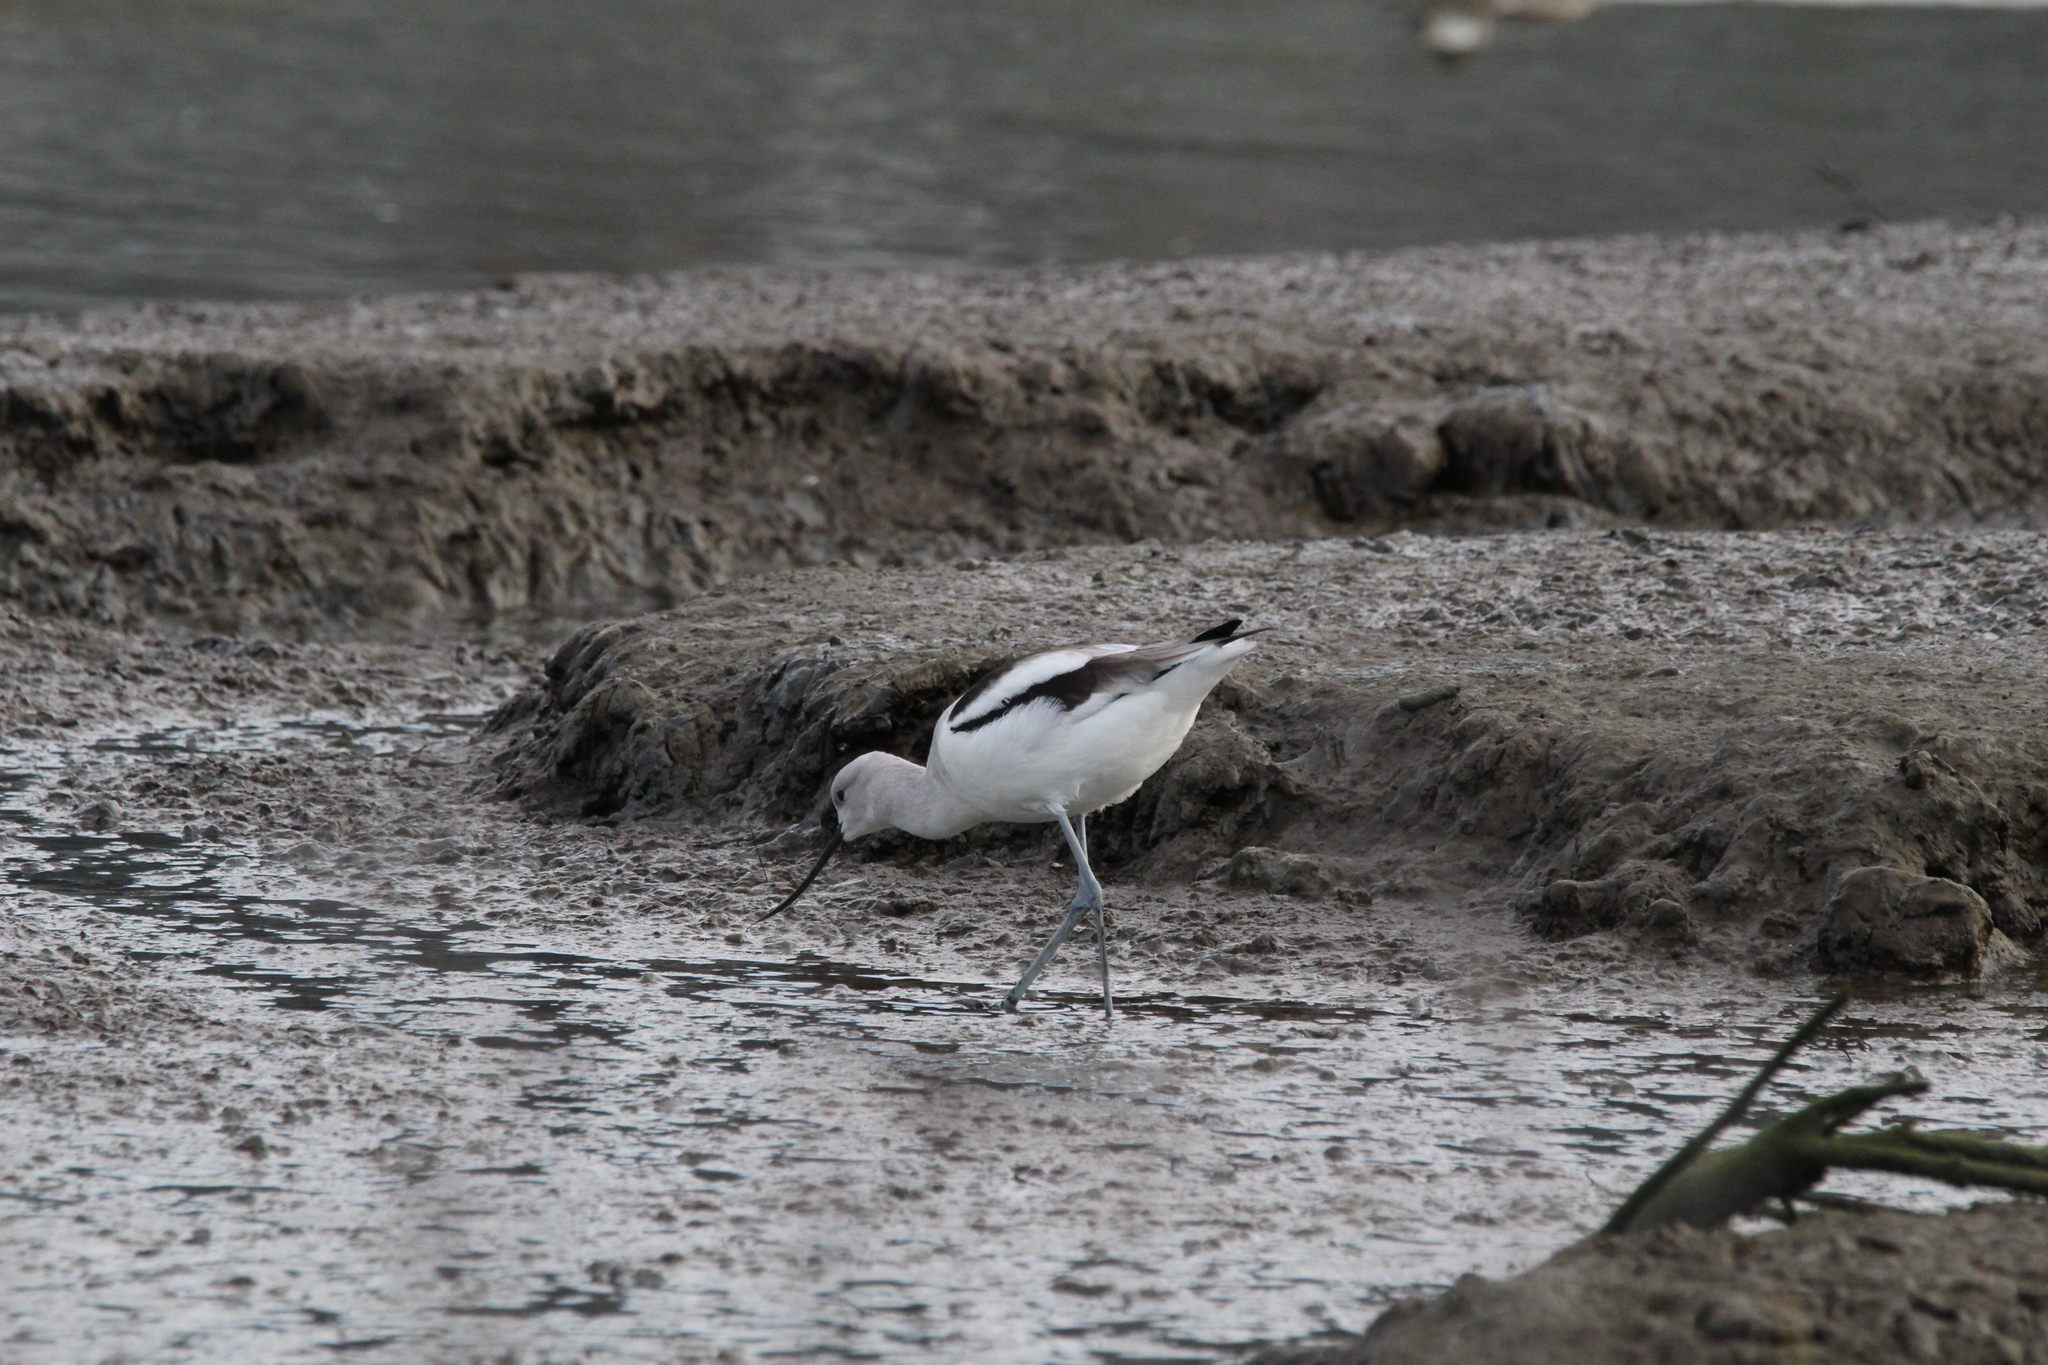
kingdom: Animalia
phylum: Chordata
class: Aves
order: Charadriiformes
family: Recurvirostridae
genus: Recurvirostra
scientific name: Recurvirostra americana
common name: American avocet
